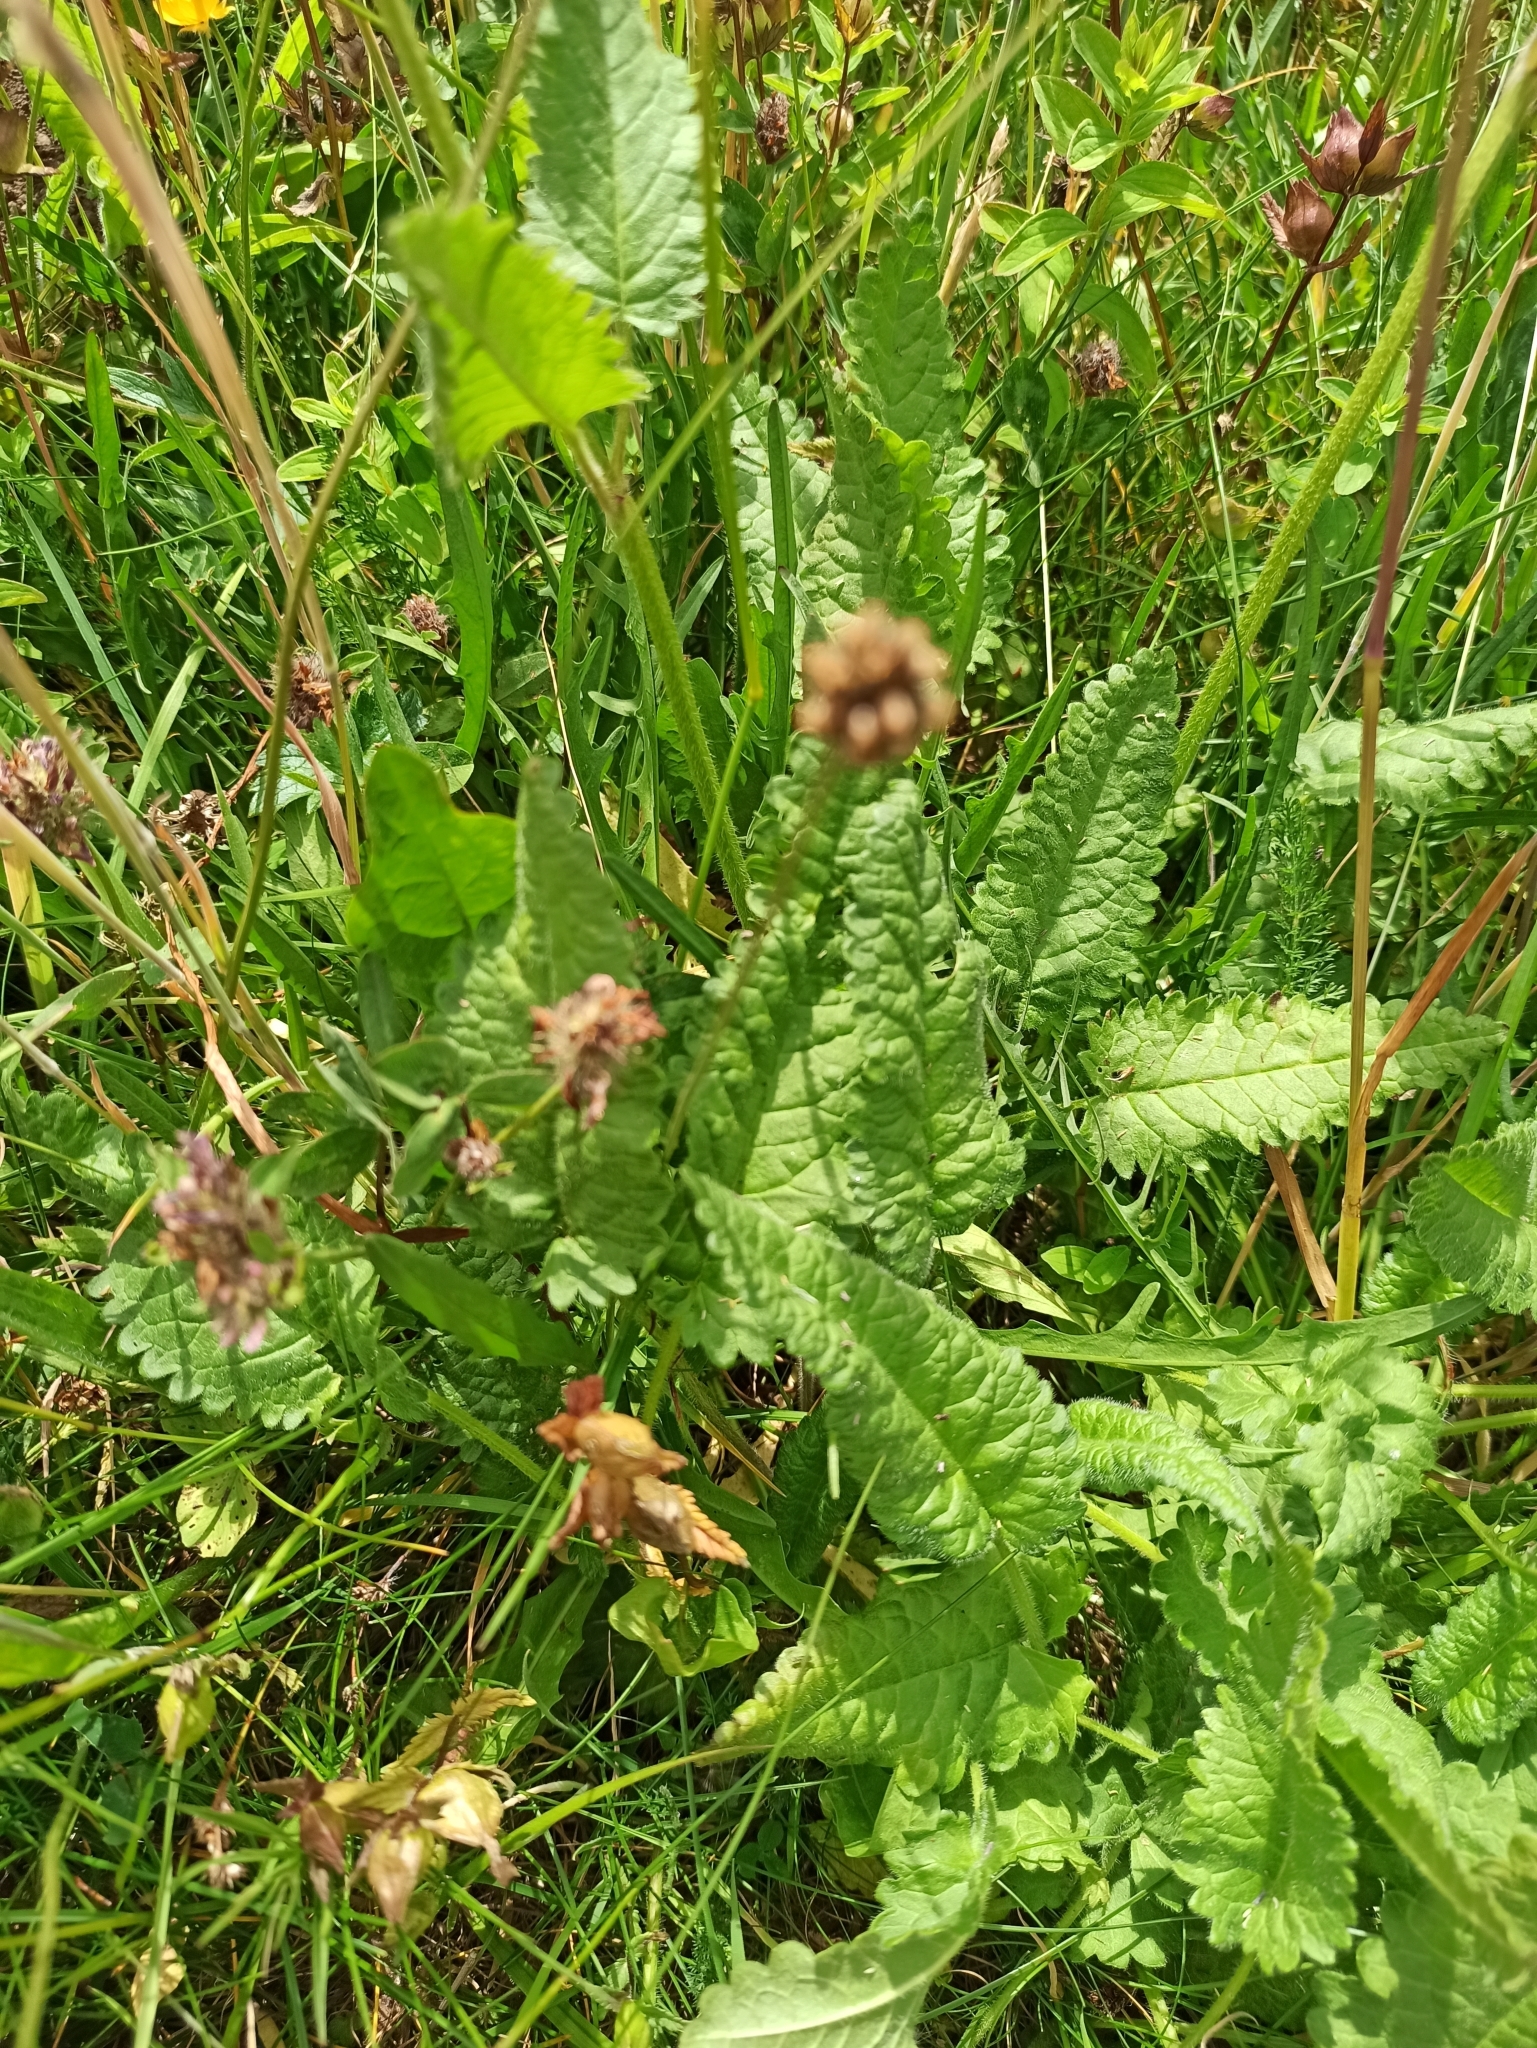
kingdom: Plantae
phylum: Tracheophyta
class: Magnoliopsida
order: Lamiales
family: Lamiaceae
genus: Betonica
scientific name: Betonica officinalis
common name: Bishop's-wort
